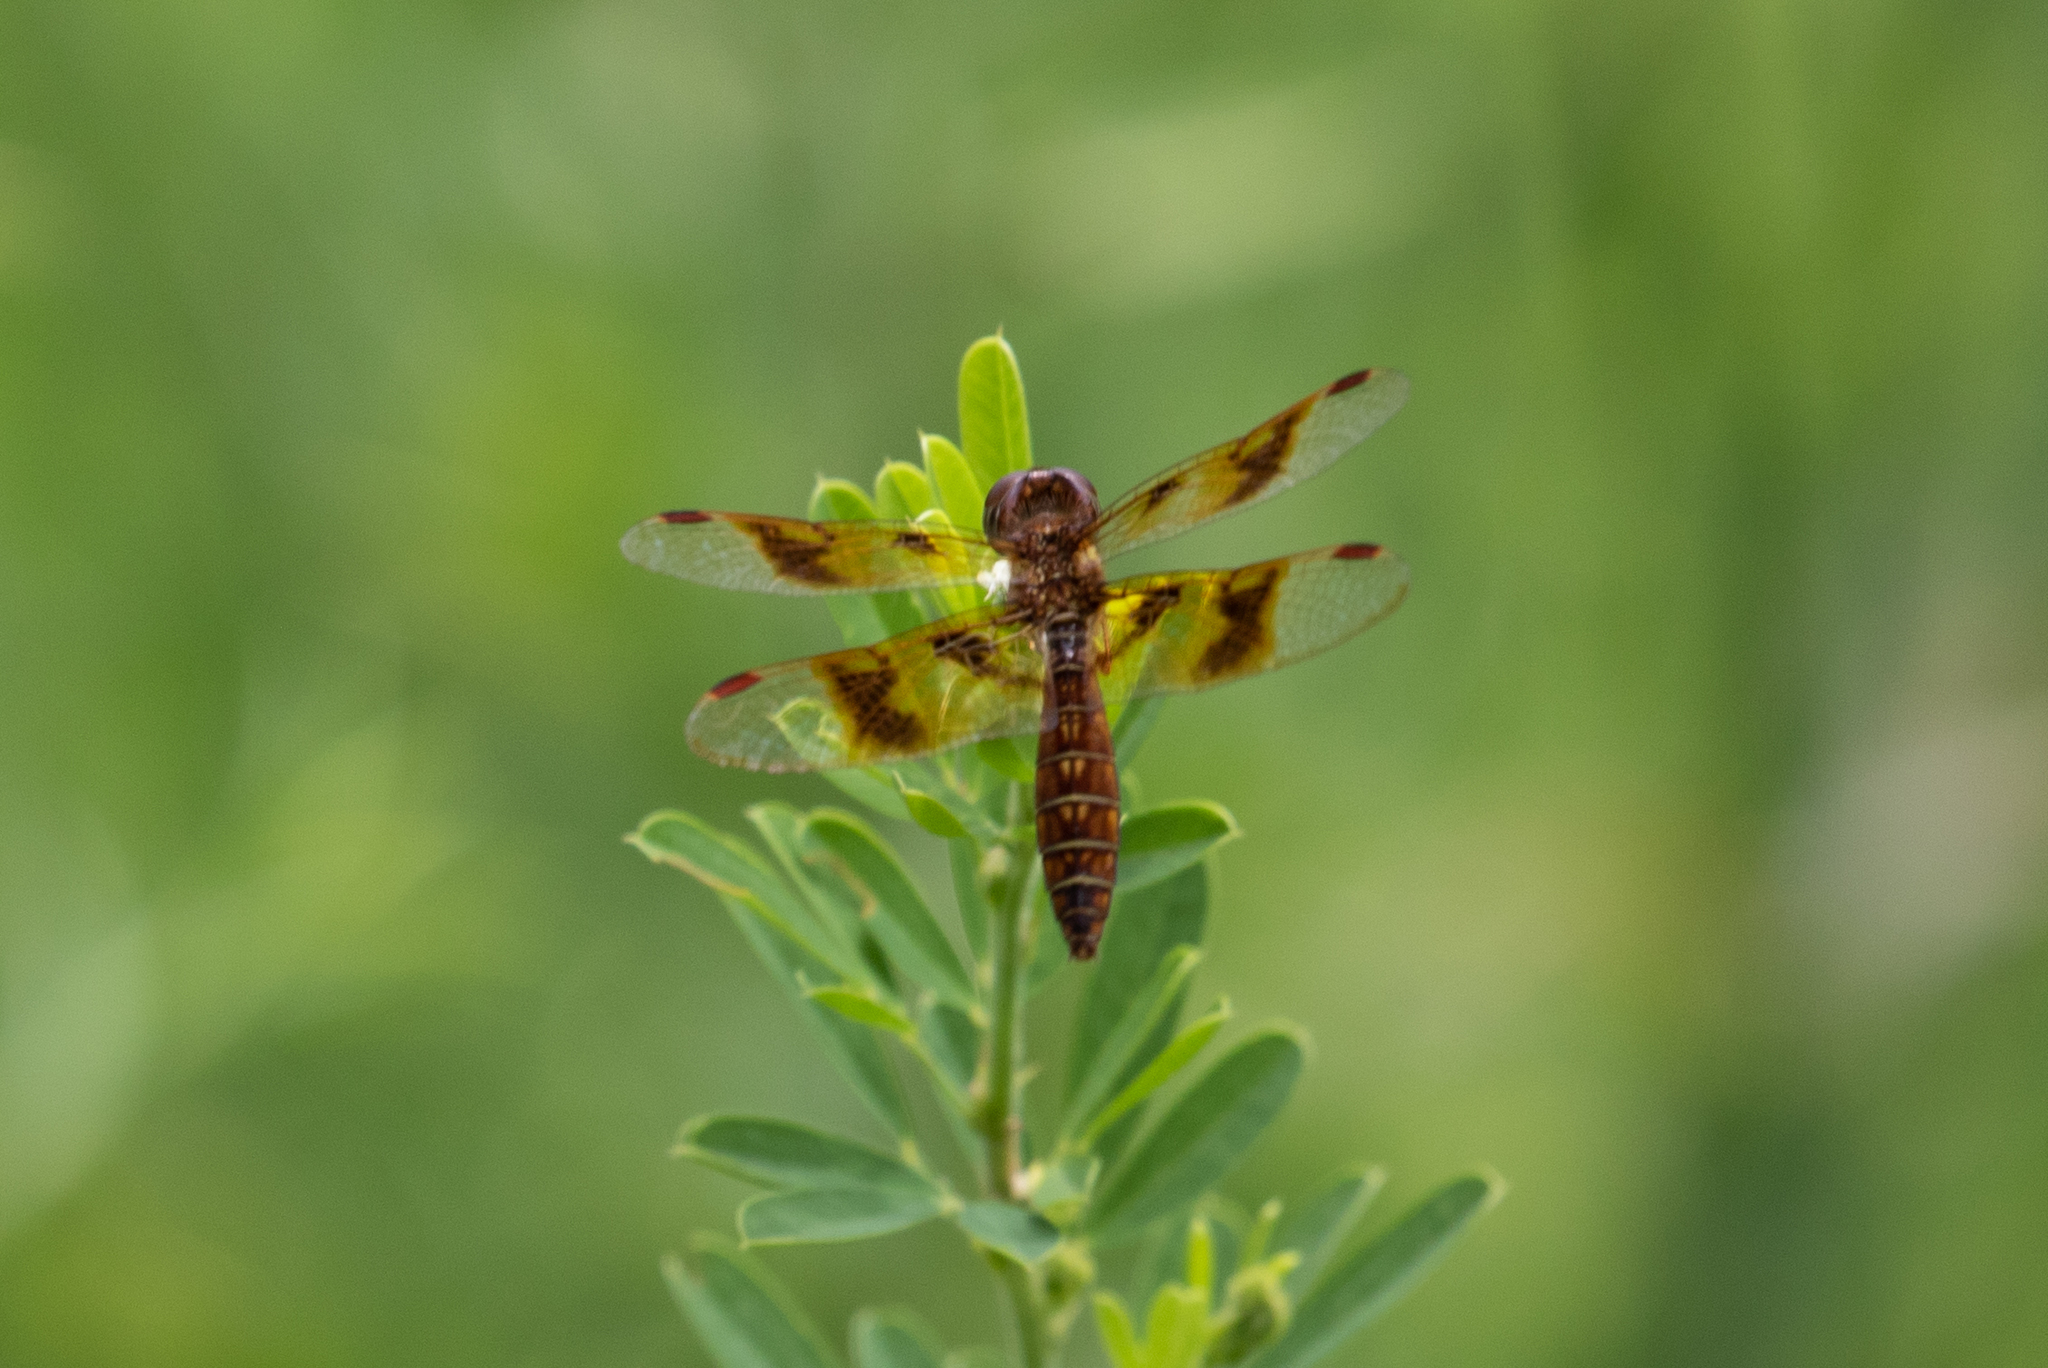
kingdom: Animalia
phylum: Arthropoda
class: Insecta
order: Odonata
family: Libellulidae
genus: Perithemis
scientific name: Perithemis tenera
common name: Eastern amberwing
